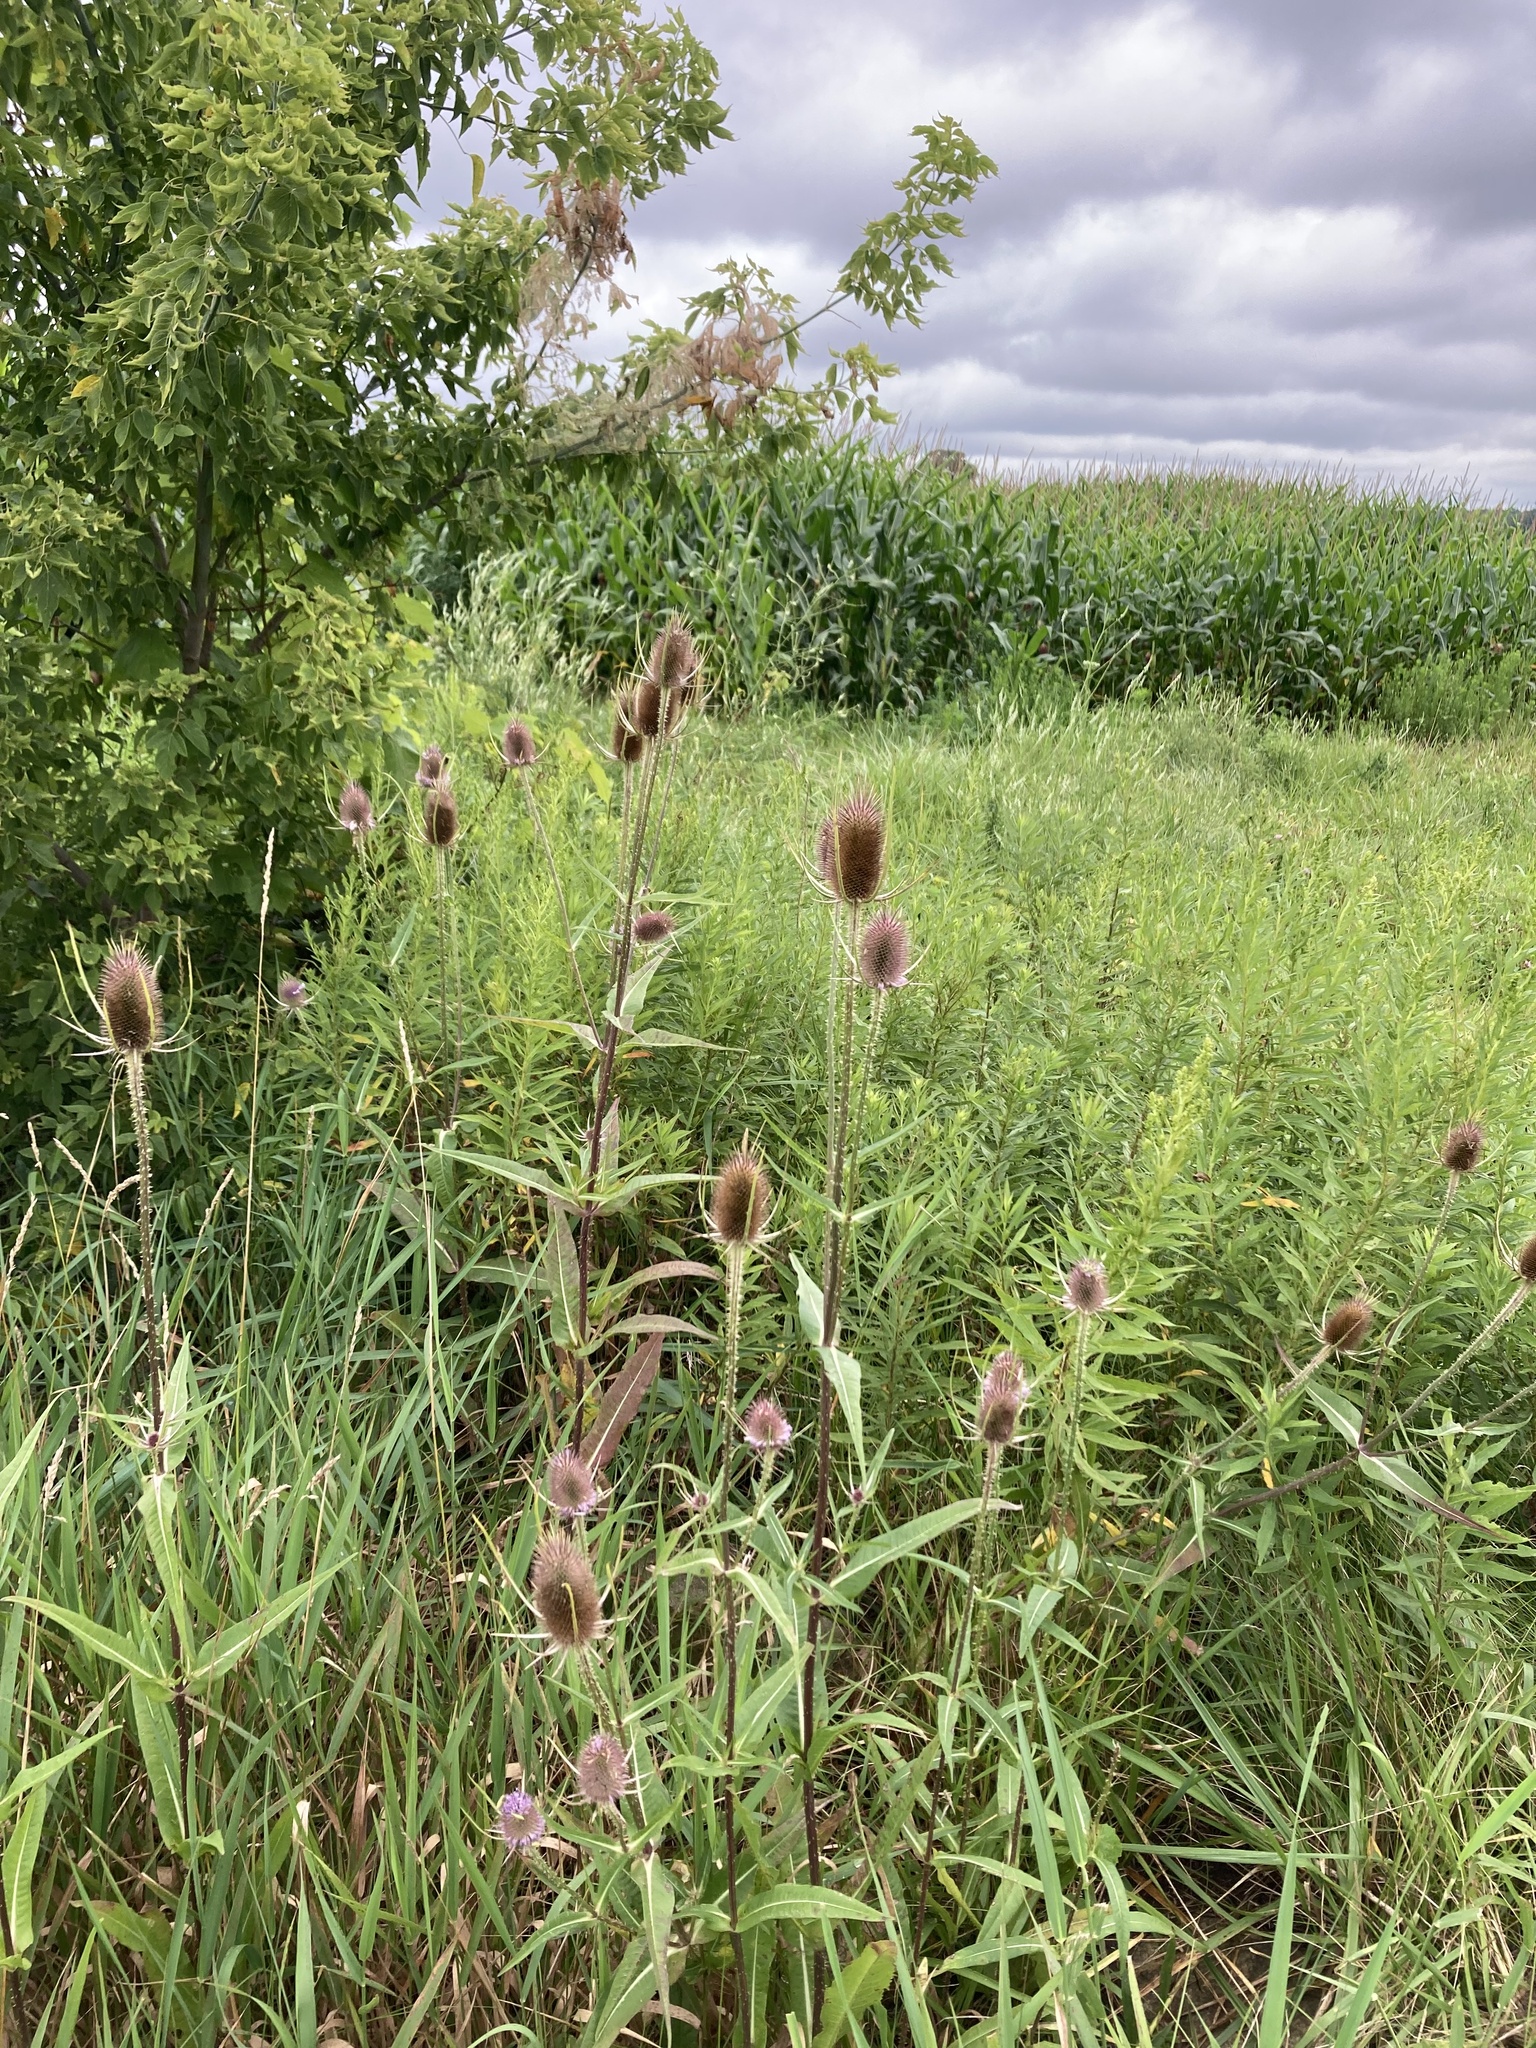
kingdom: Plantae
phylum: Tracheophyta
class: Magnoliopsida
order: Dipsacales
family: Caprifoliaceae
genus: Dipsacus
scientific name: Dipsacus fullonum
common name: Teasel
